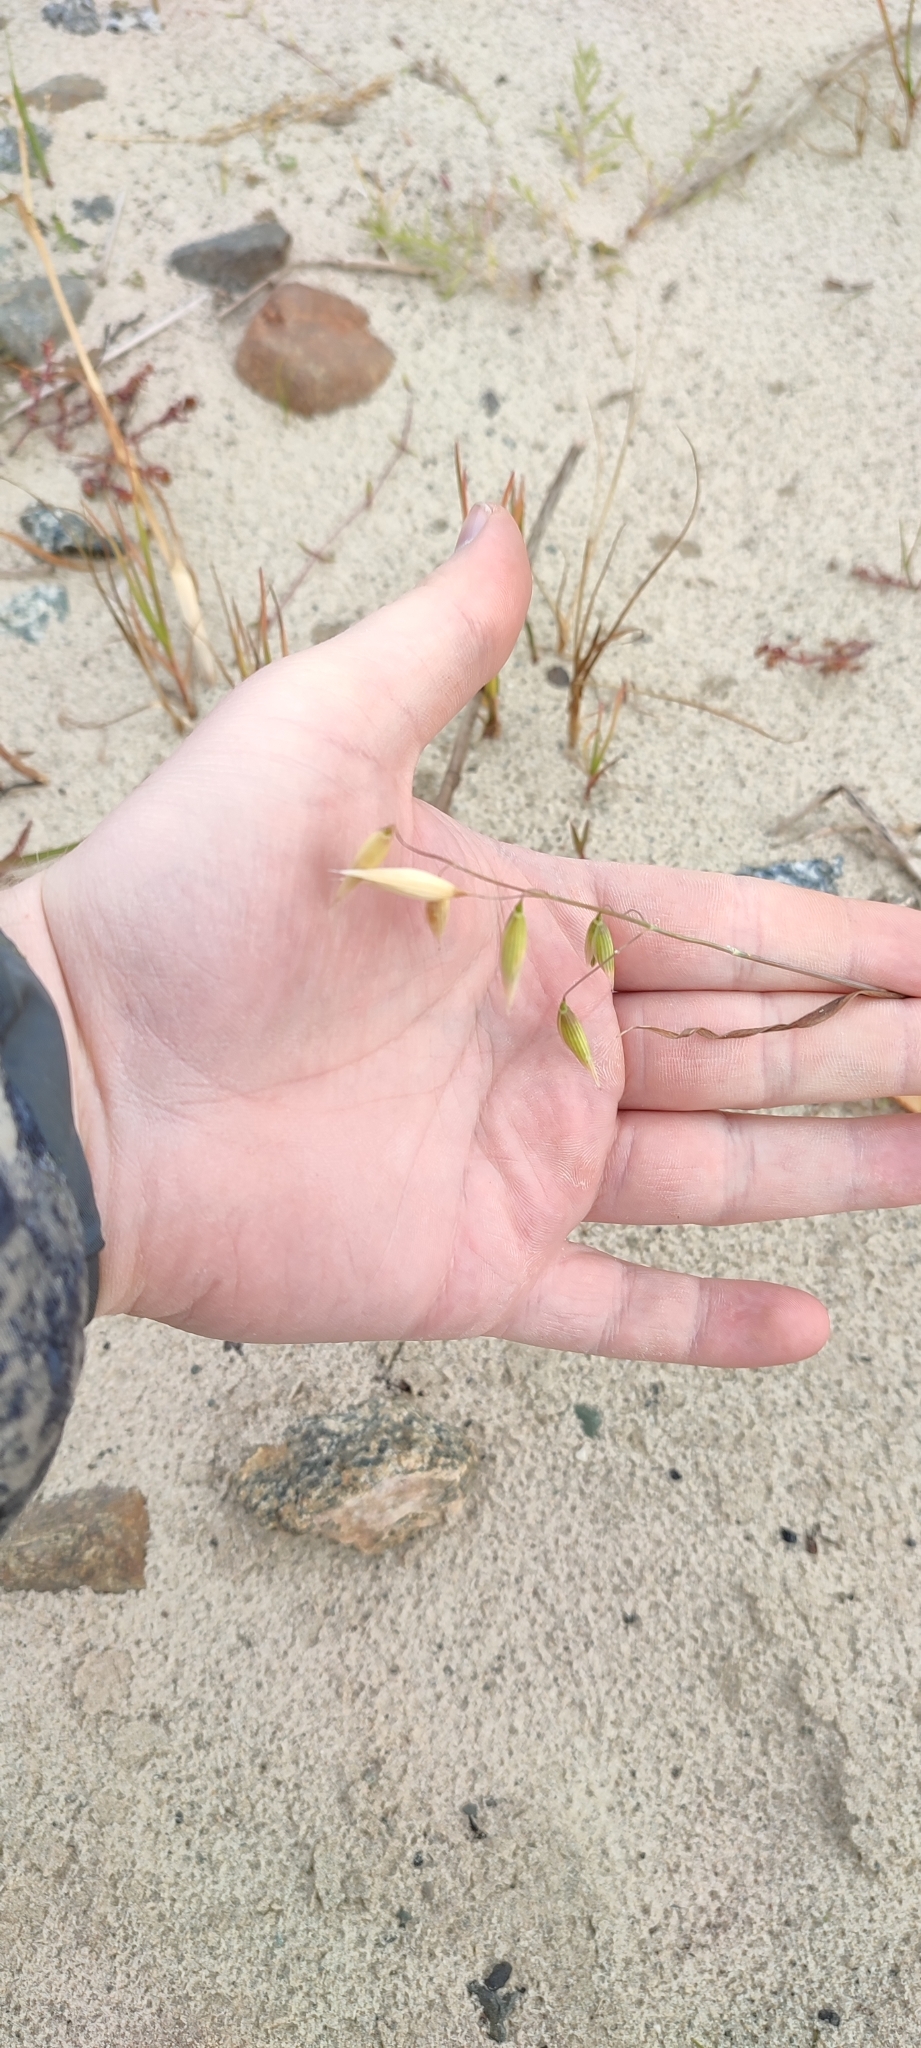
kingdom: Plantae
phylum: Tracheophyta
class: Liliopsida
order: Poales
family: Poaceae
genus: Avena
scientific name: Avena sativa
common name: Oat
